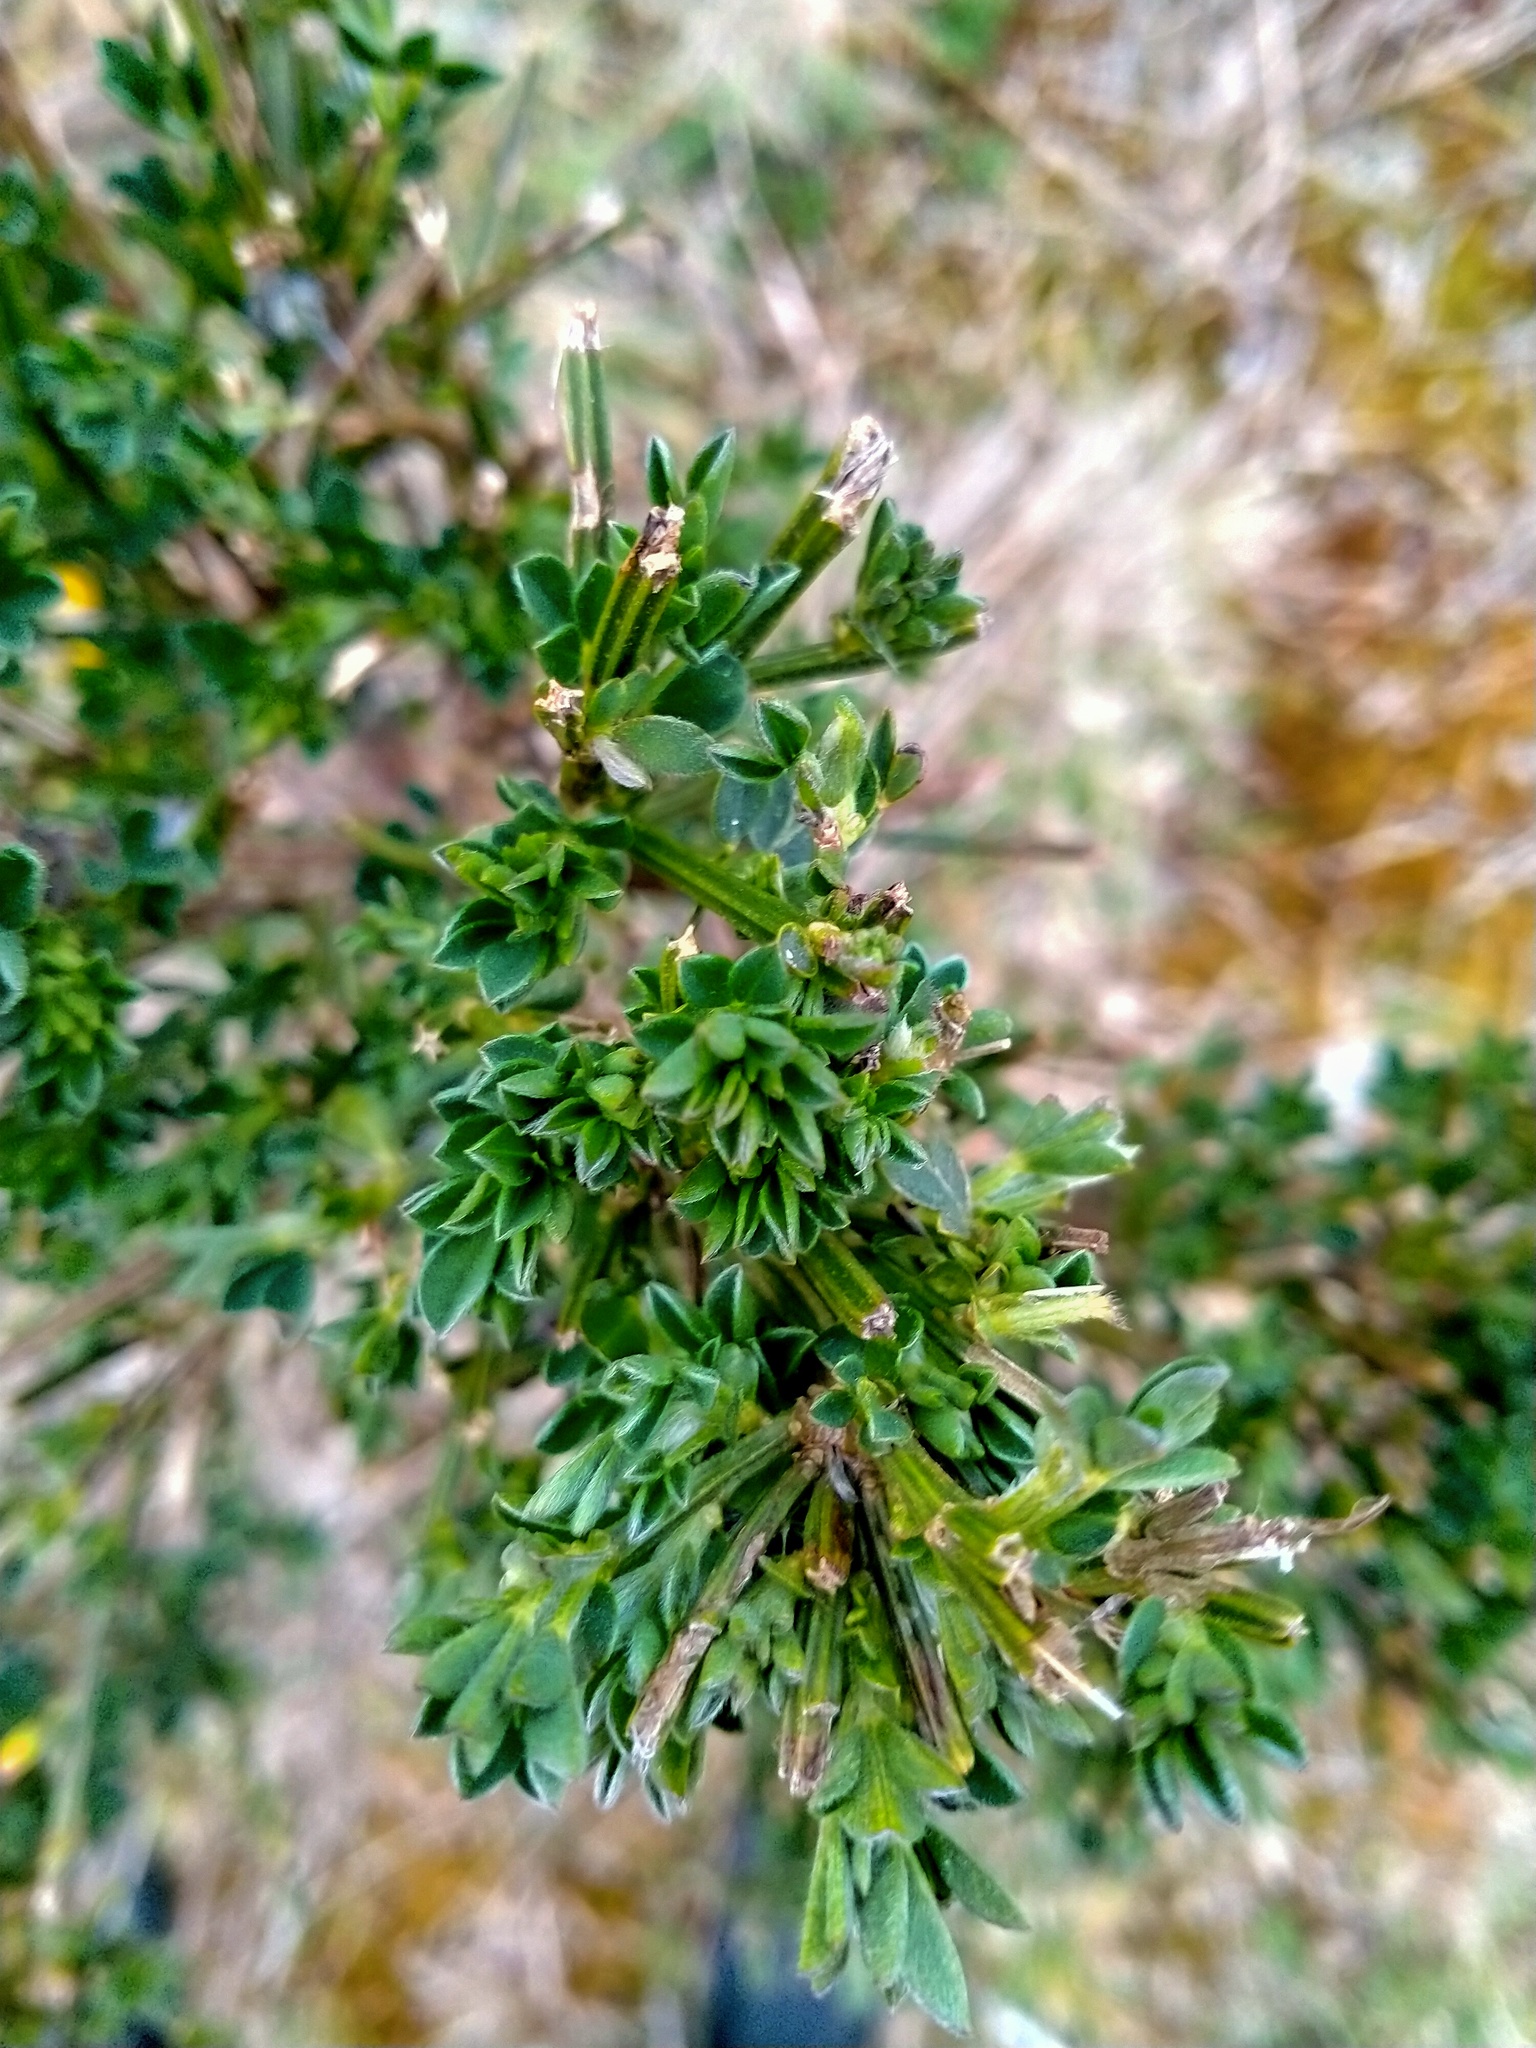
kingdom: Plantae
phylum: Tracheophyta
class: Magnoliopsida
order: Fabales
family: Fabaceae
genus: Cytisus
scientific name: Cytisus scoparius
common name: Scotch broom
